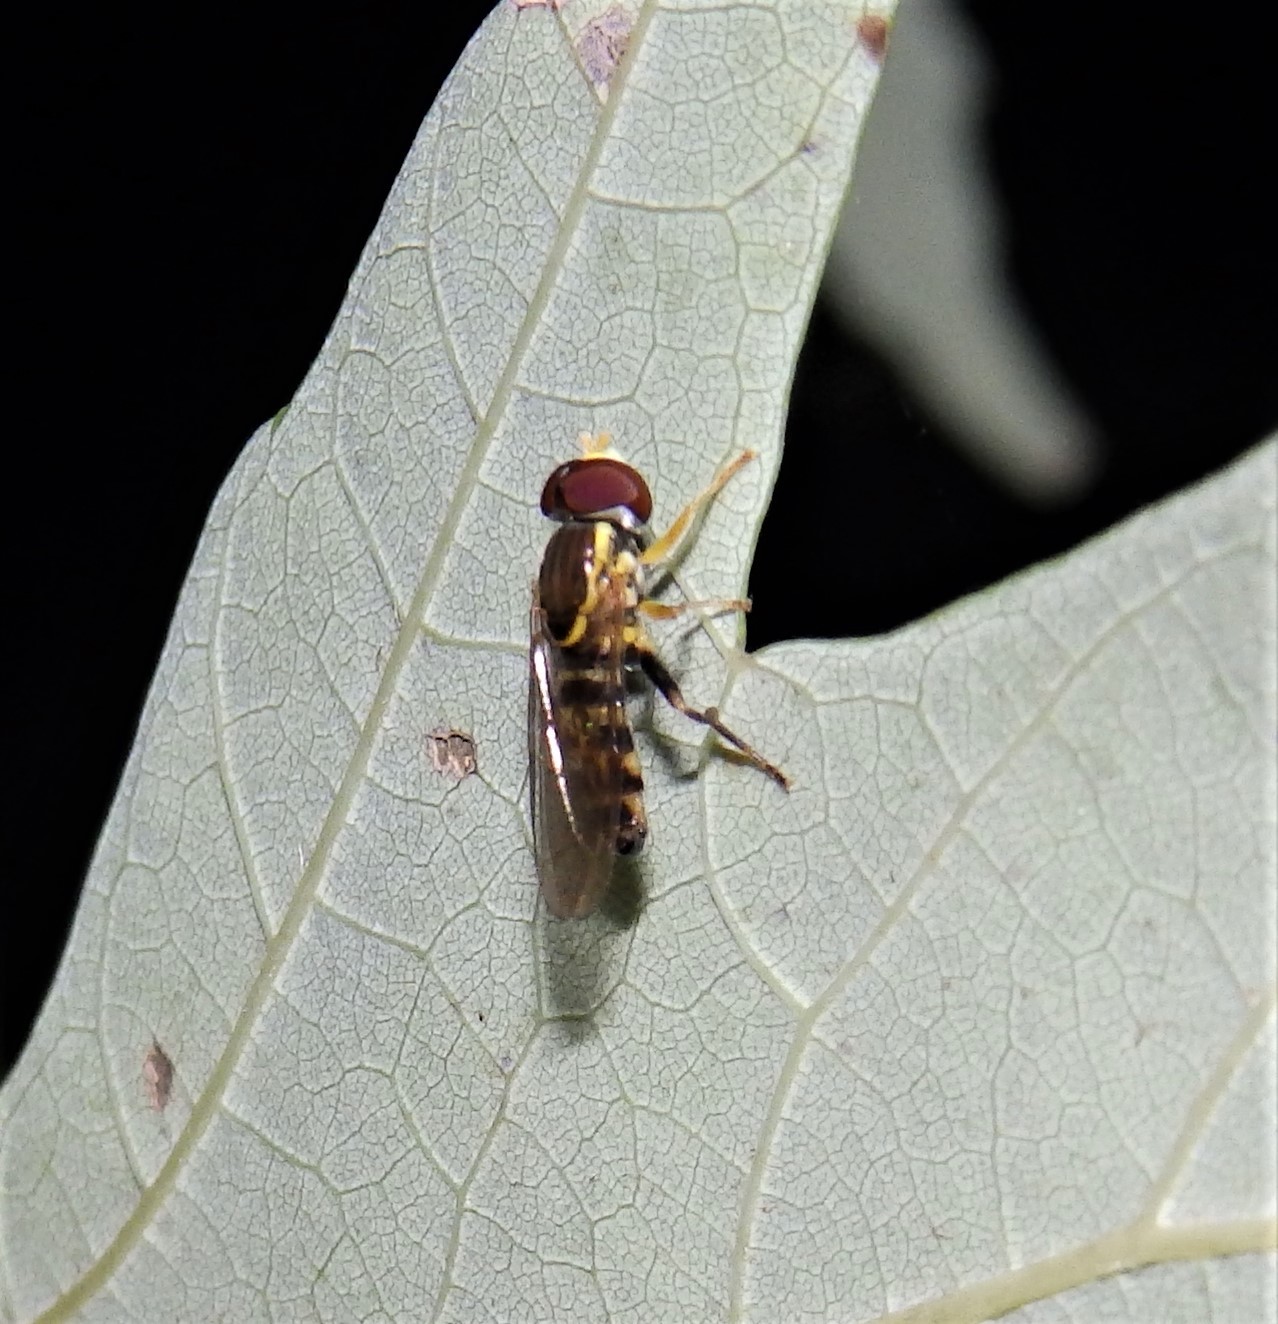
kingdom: Animalia
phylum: Arthropoda
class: Insecta
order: Diptera
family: Syrphidae
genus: Toxomerus
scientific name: Toxomerus geminatus
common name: Eastern calligrapher
